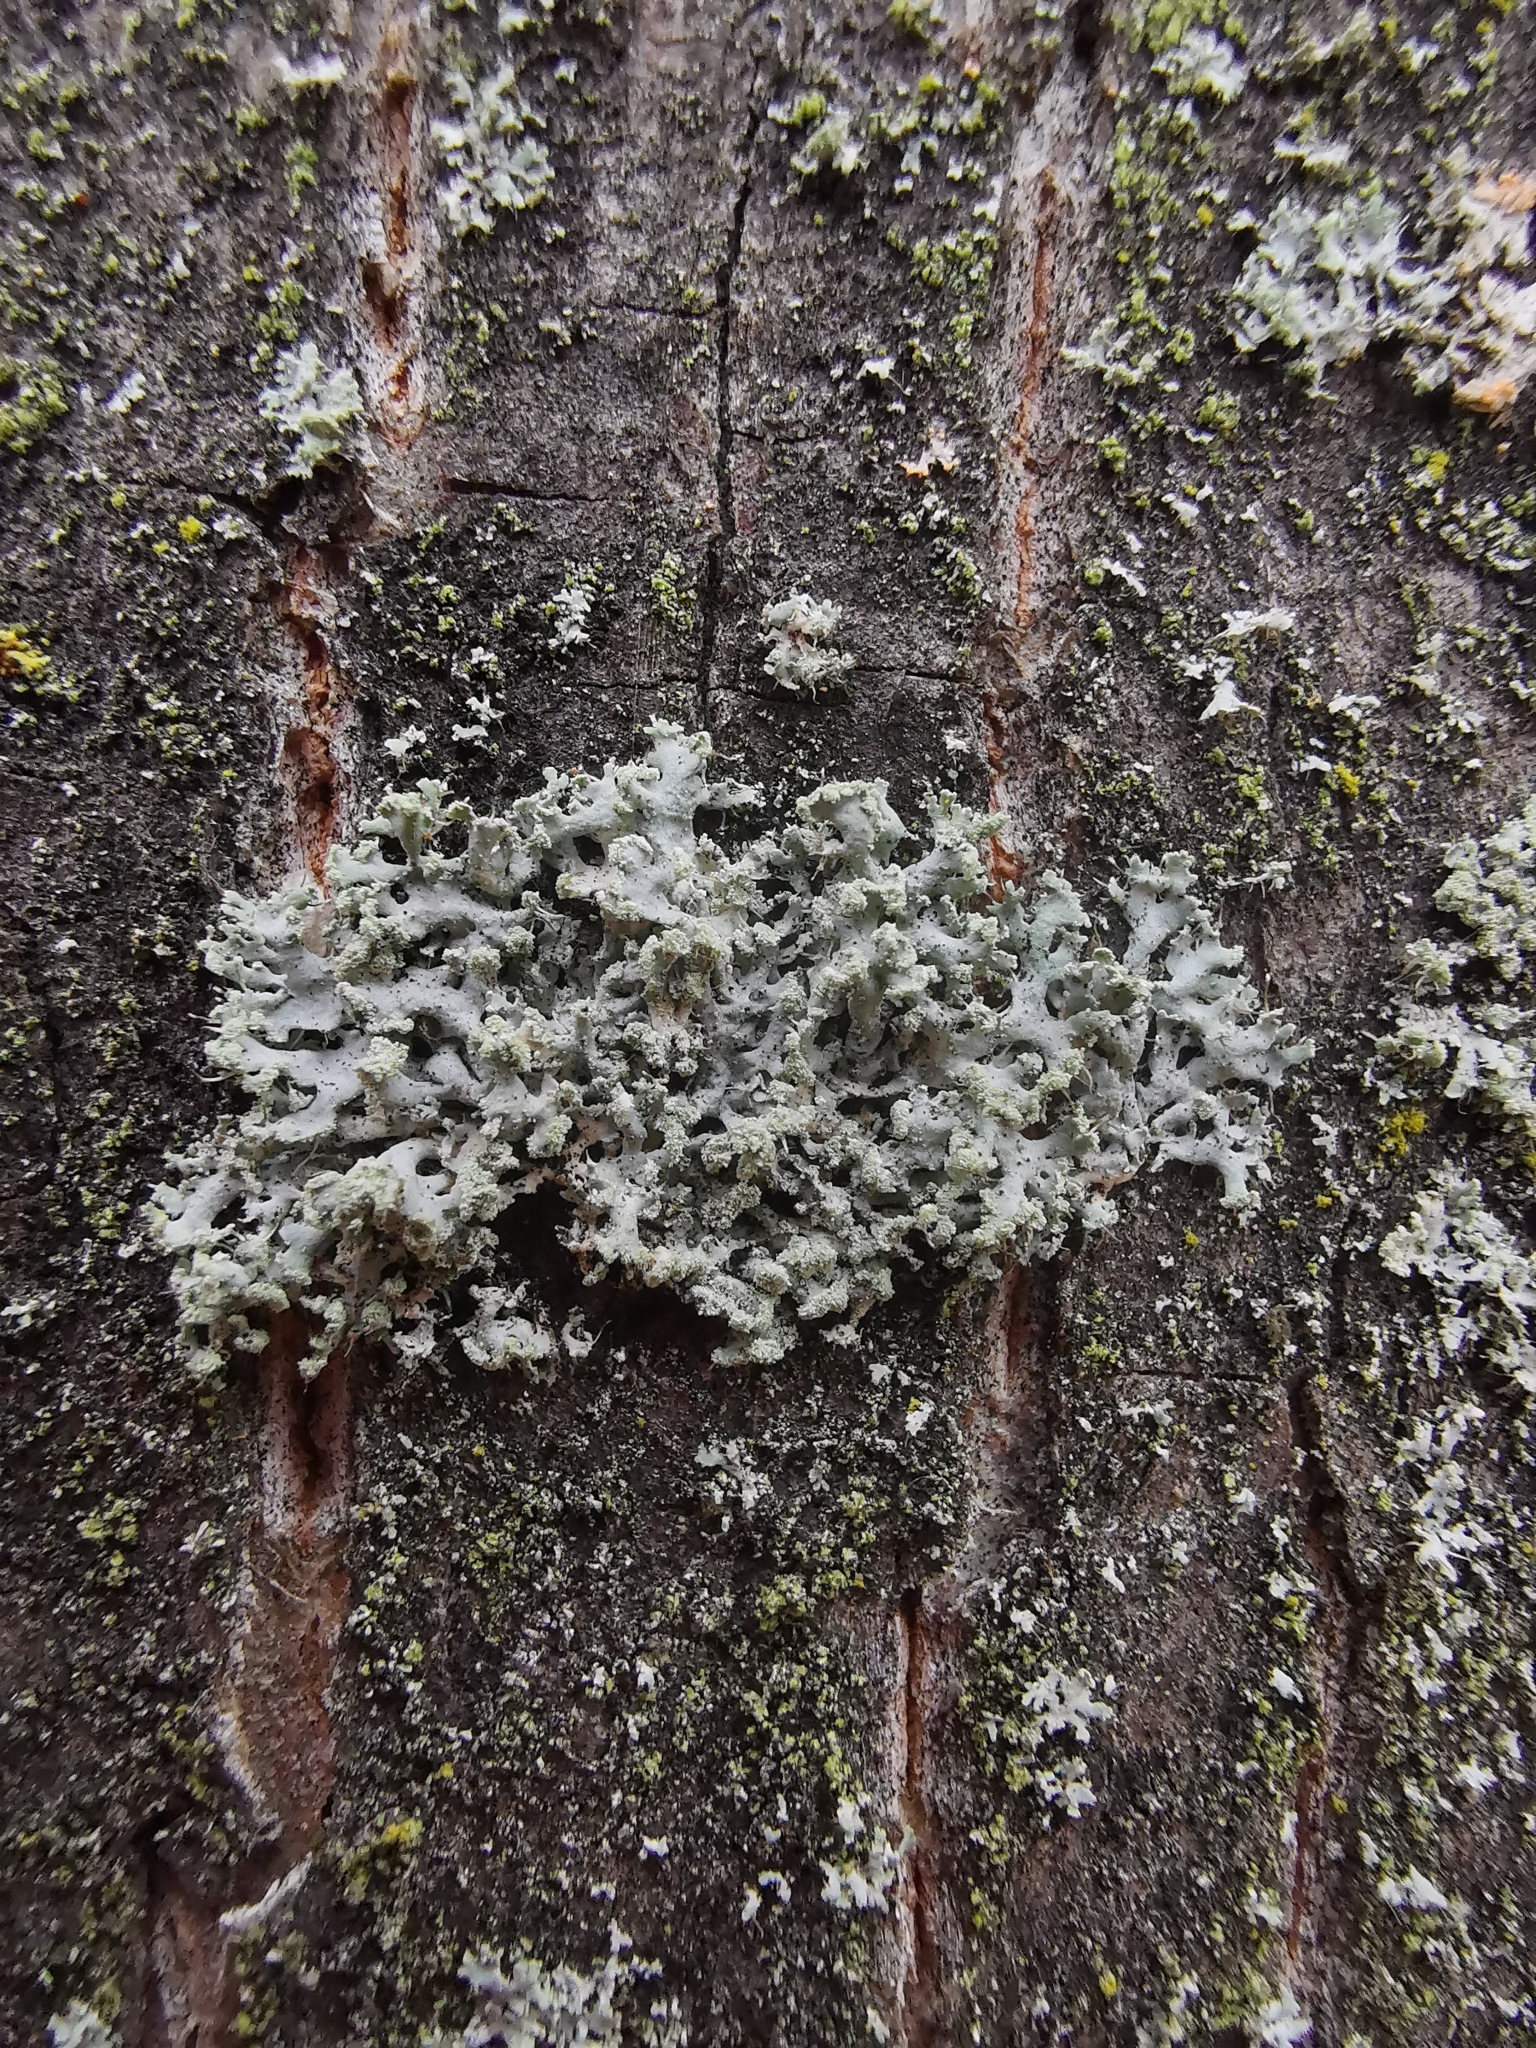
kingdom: Fungi
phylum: Ascomycota
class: Lecanoromycetes
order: Caliciales
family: Physciaceae
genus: Physcia
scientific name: Physcia tenella
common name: Fringed rosette lichen
